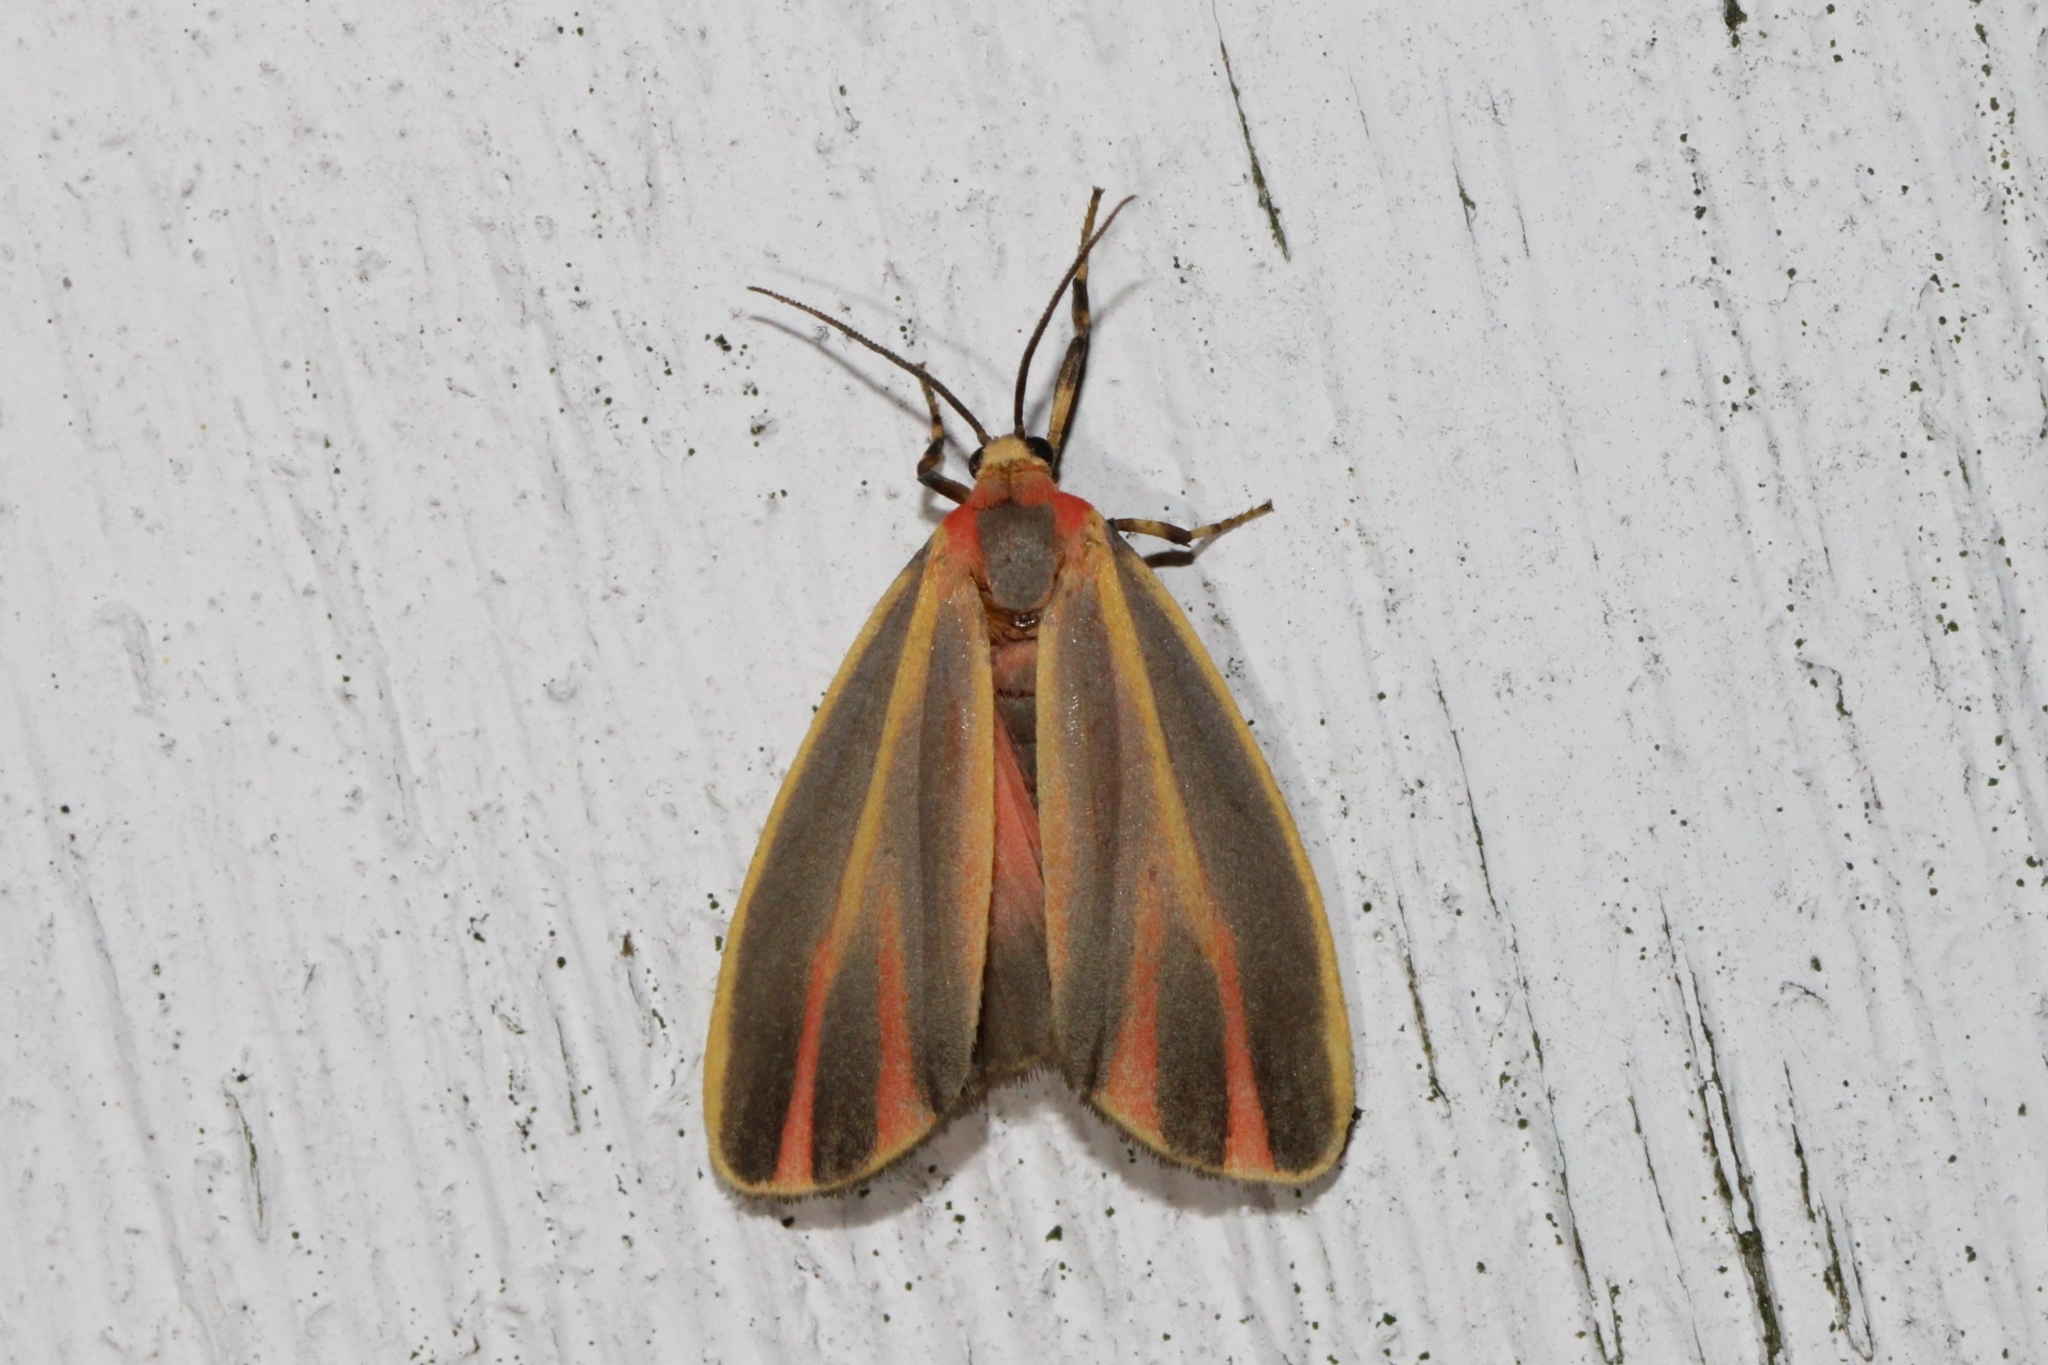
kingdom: Animalia
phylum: Arthropoda
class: Insecta
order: Lepidoptera
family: Erebidae
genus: Hypoprepia
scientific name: Hypoprepia fucosa
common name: Painted lichen moth
